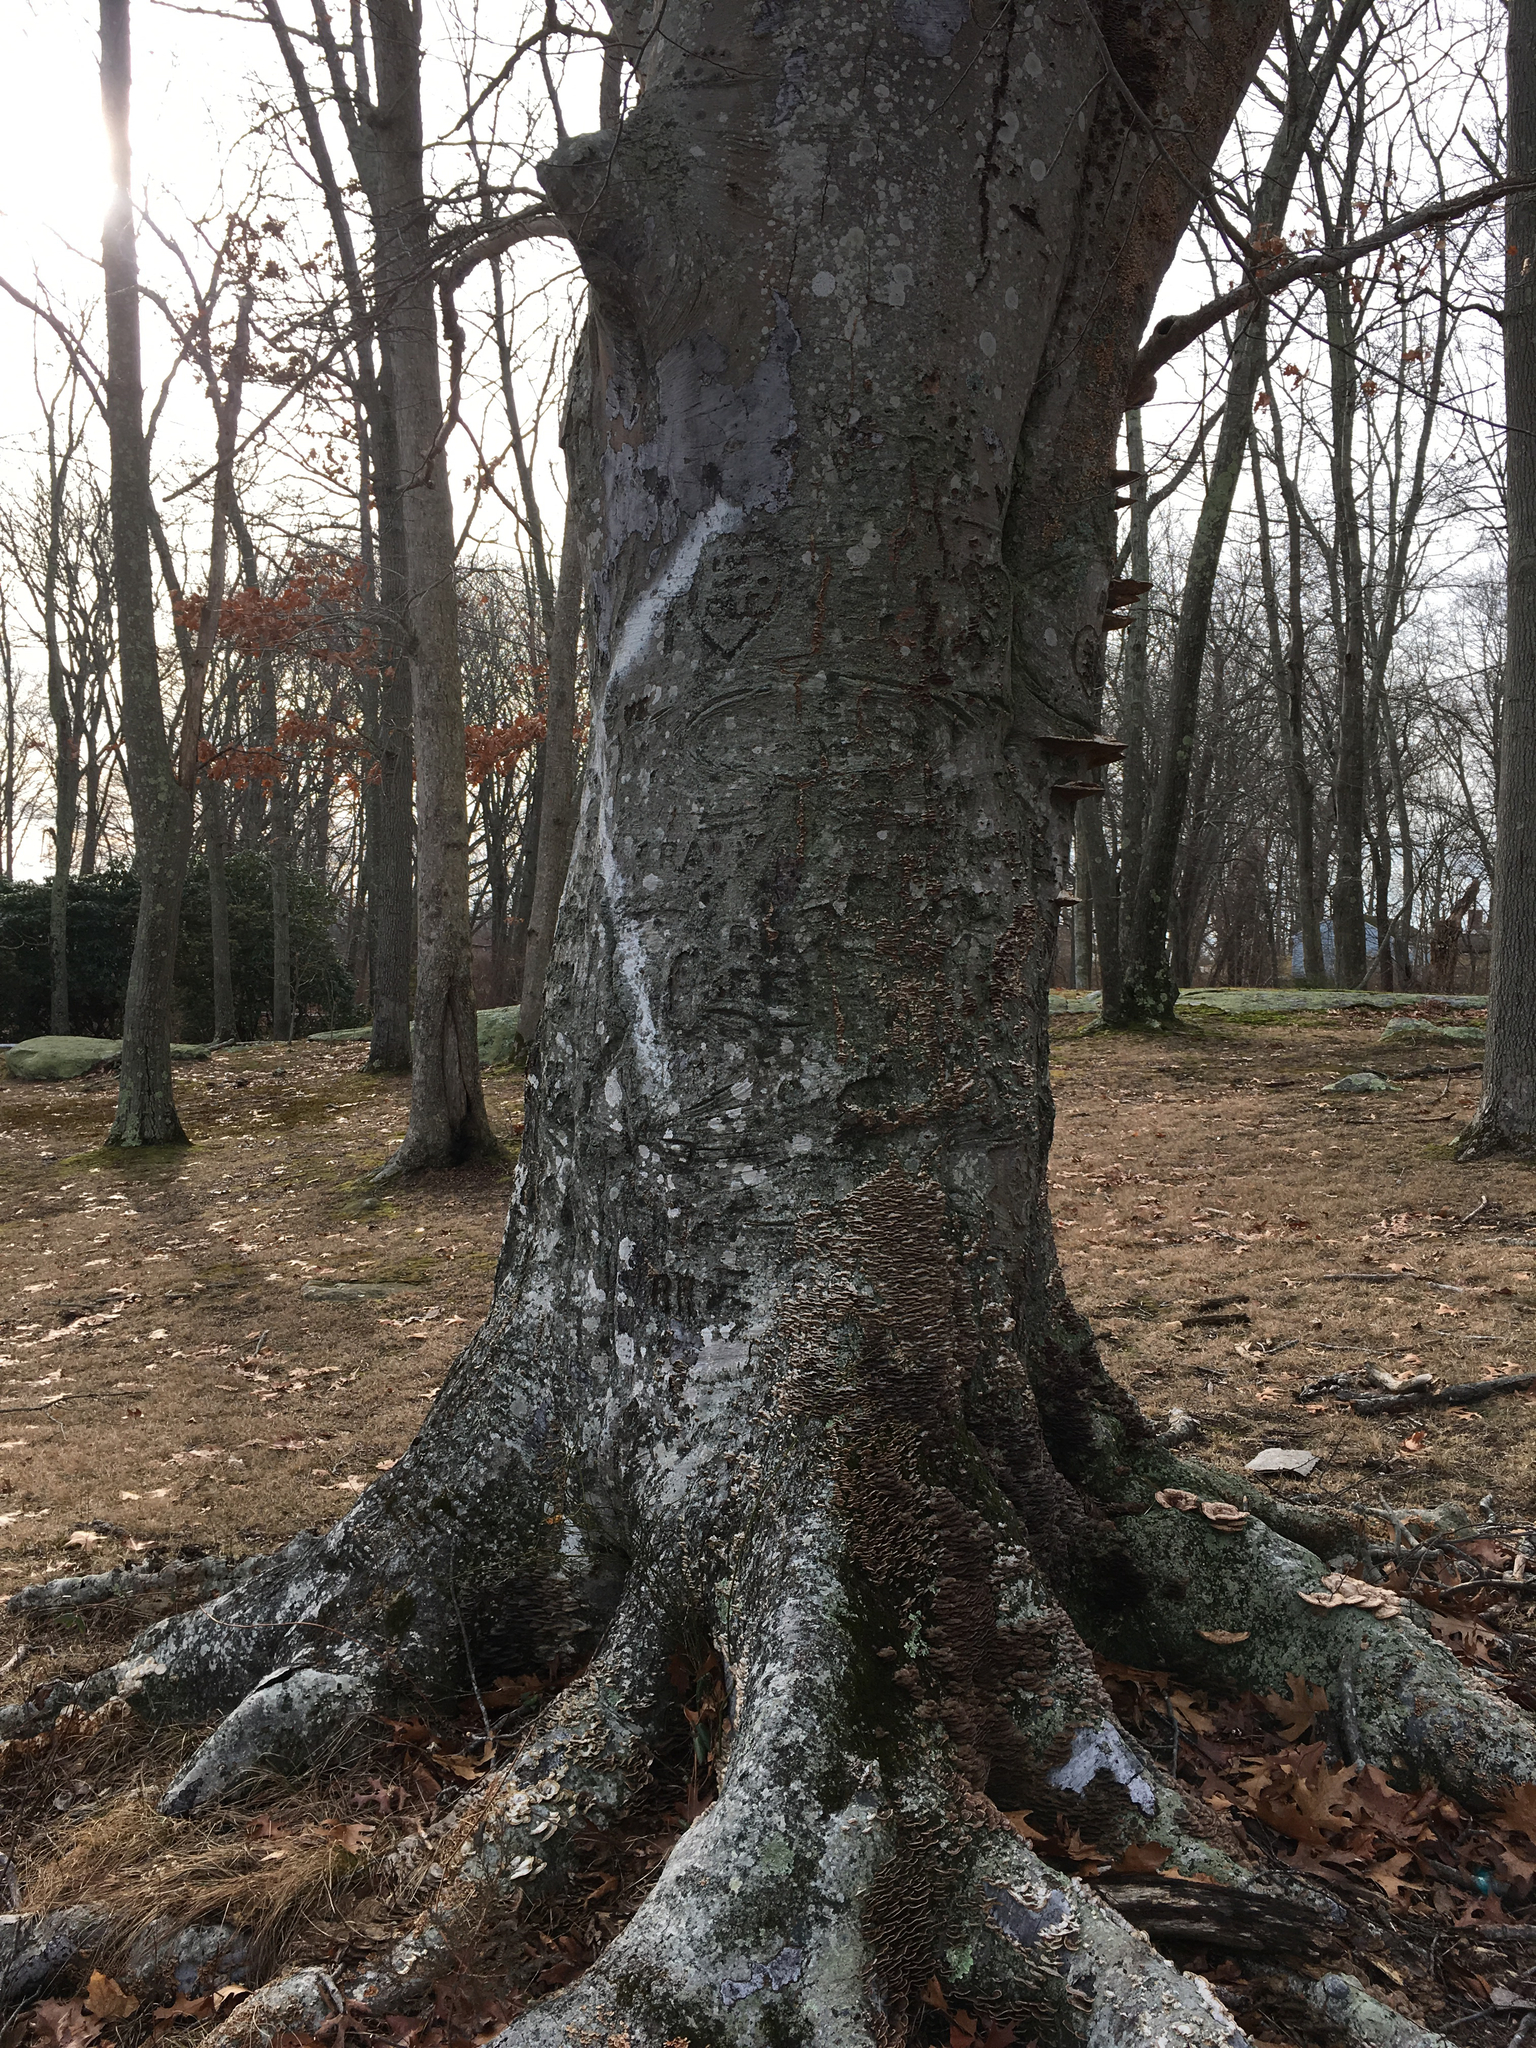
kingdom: Plantae
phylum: Tracheophyta
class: Magnoliopsida
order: Fagales
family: Fagaceae
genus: Fagus
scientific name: Fagus grandifolia
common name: American beech
